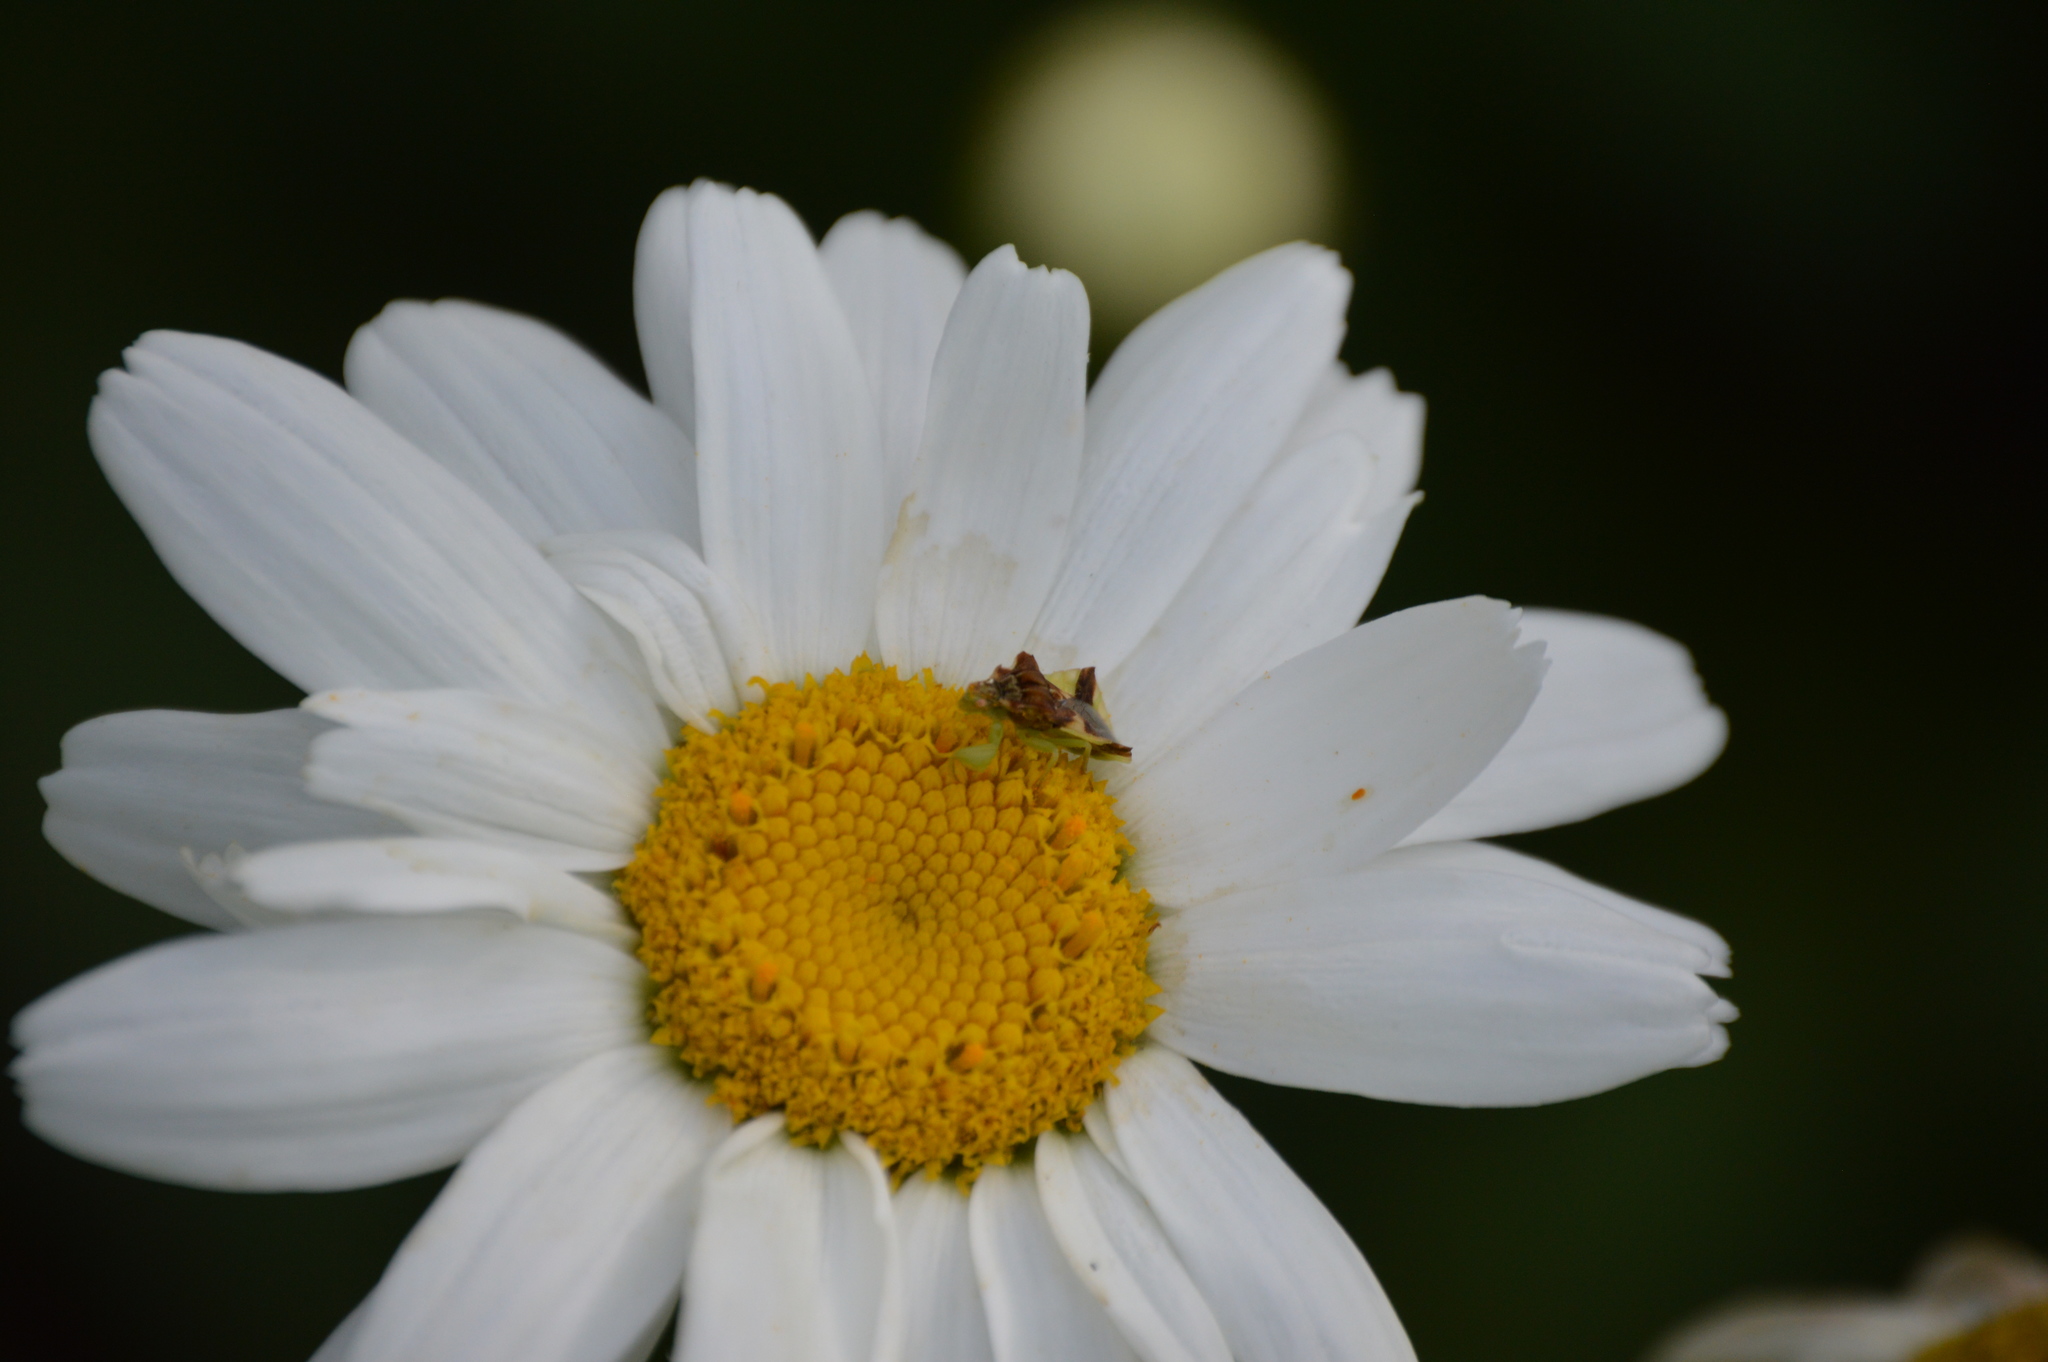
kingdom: Animalia
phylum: Arthropoda
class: Insecta
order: Hemiptera
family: Reduviidae
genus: Phymata
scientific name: Phymata pennsylvanica
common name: Pennsylvania ambush bug
